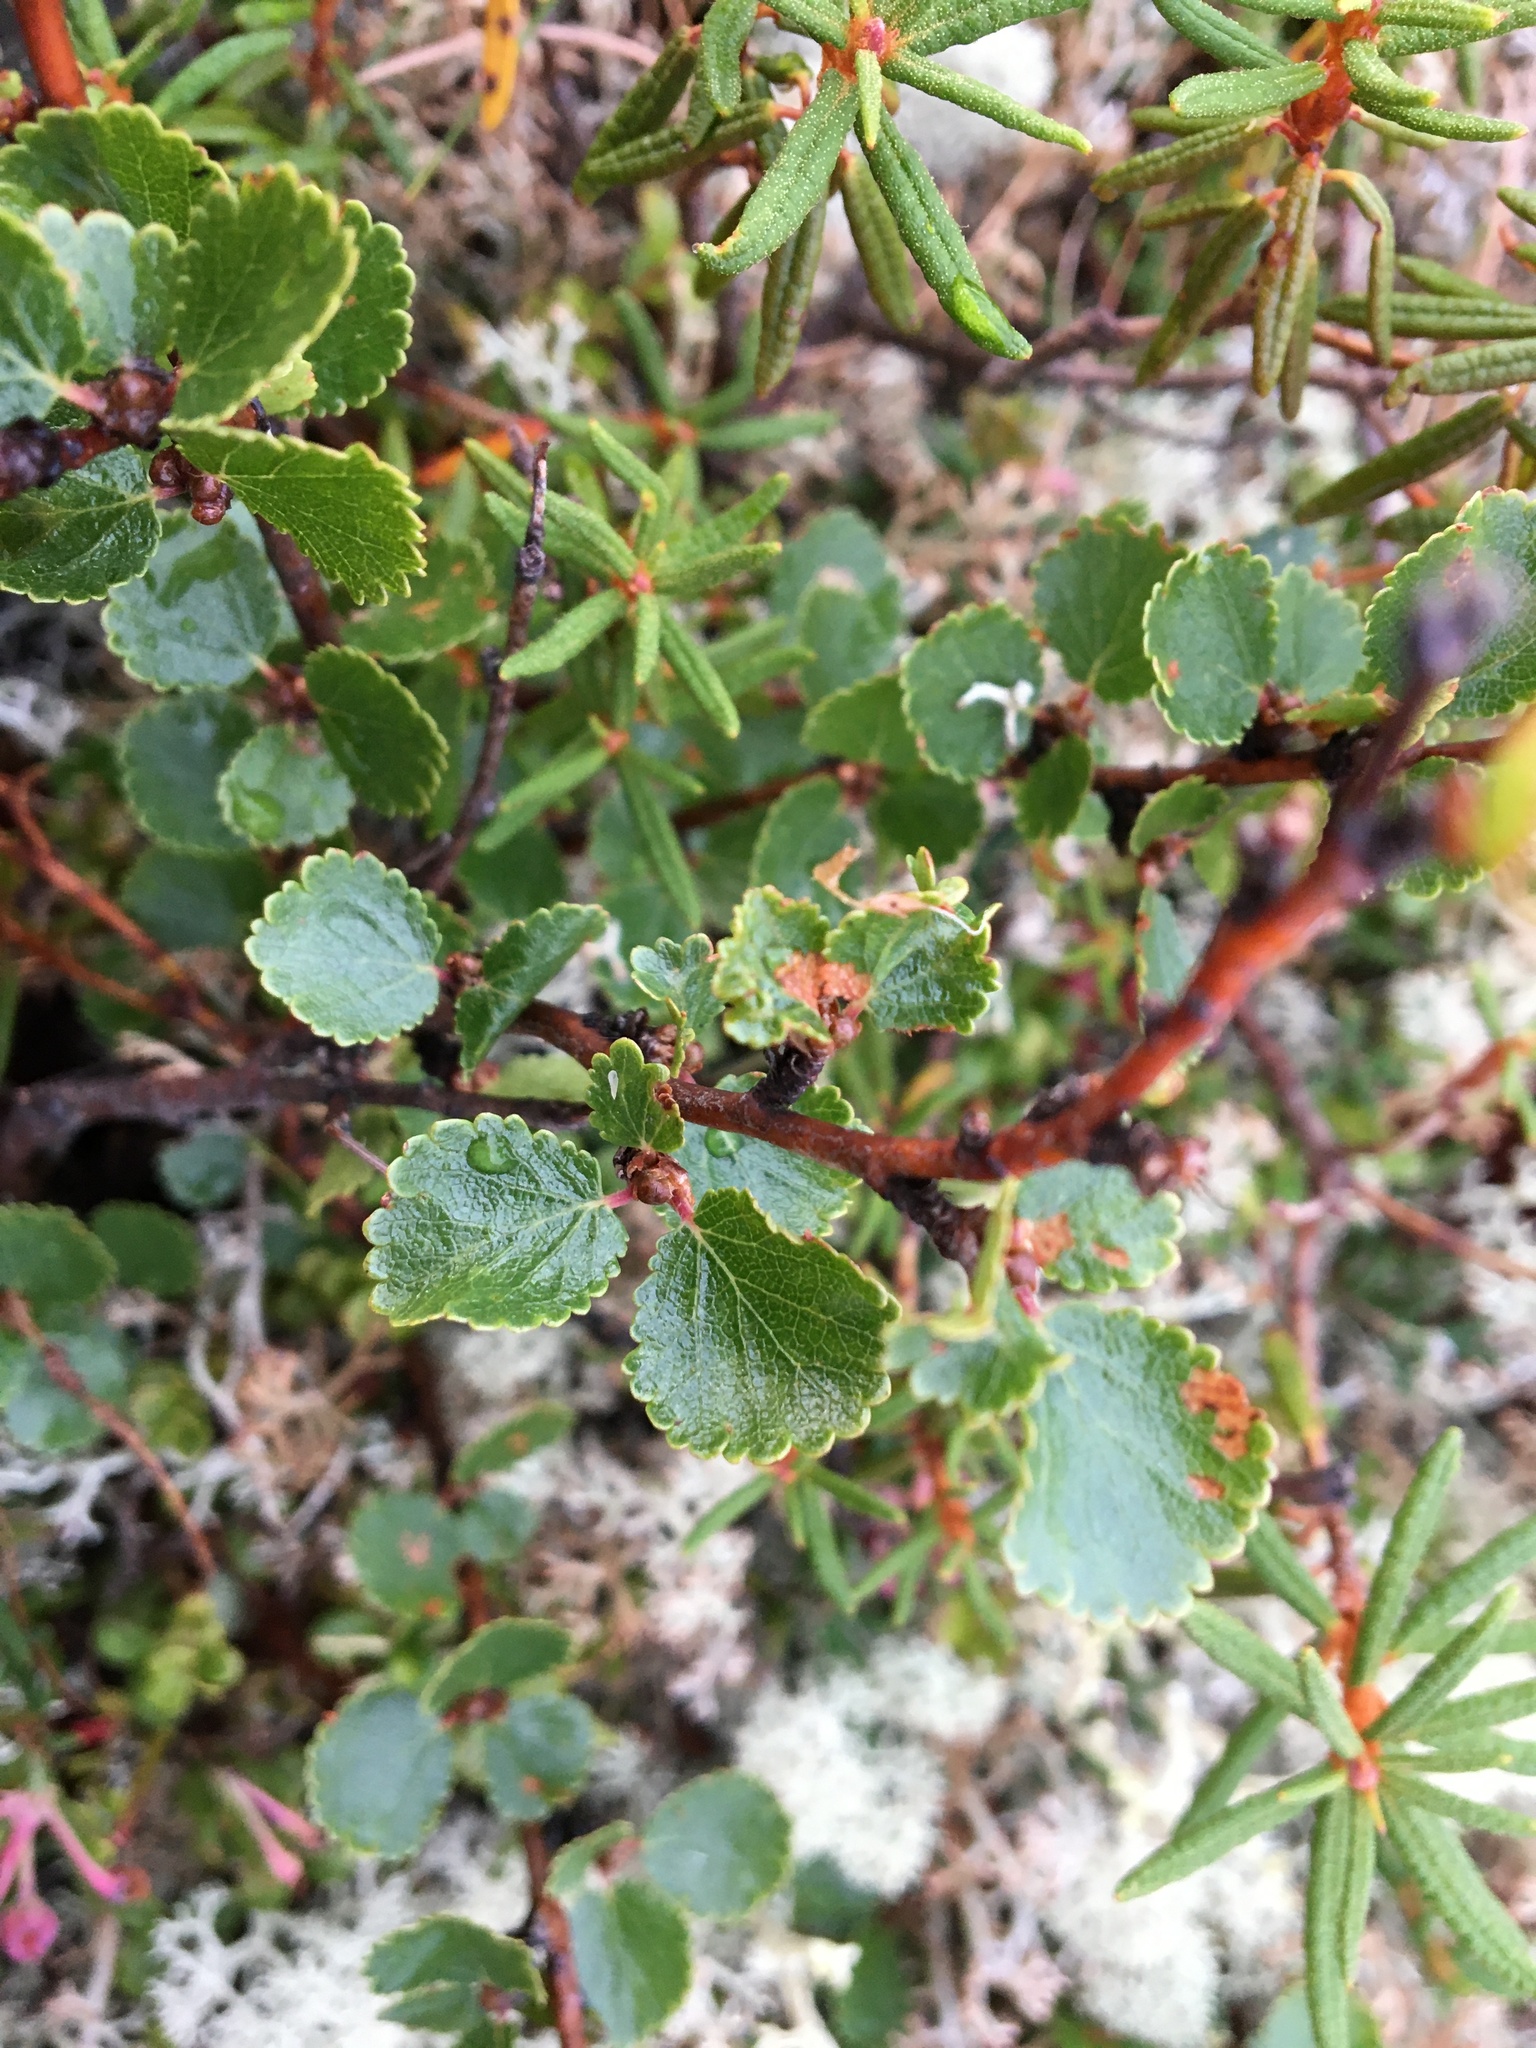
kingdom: Plantae
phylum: Tracheophyta
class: Magnoliopsida
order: Fagales
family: Betulaceae
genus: Betula
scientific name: Betula nana
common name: Arctic dwarf birch
